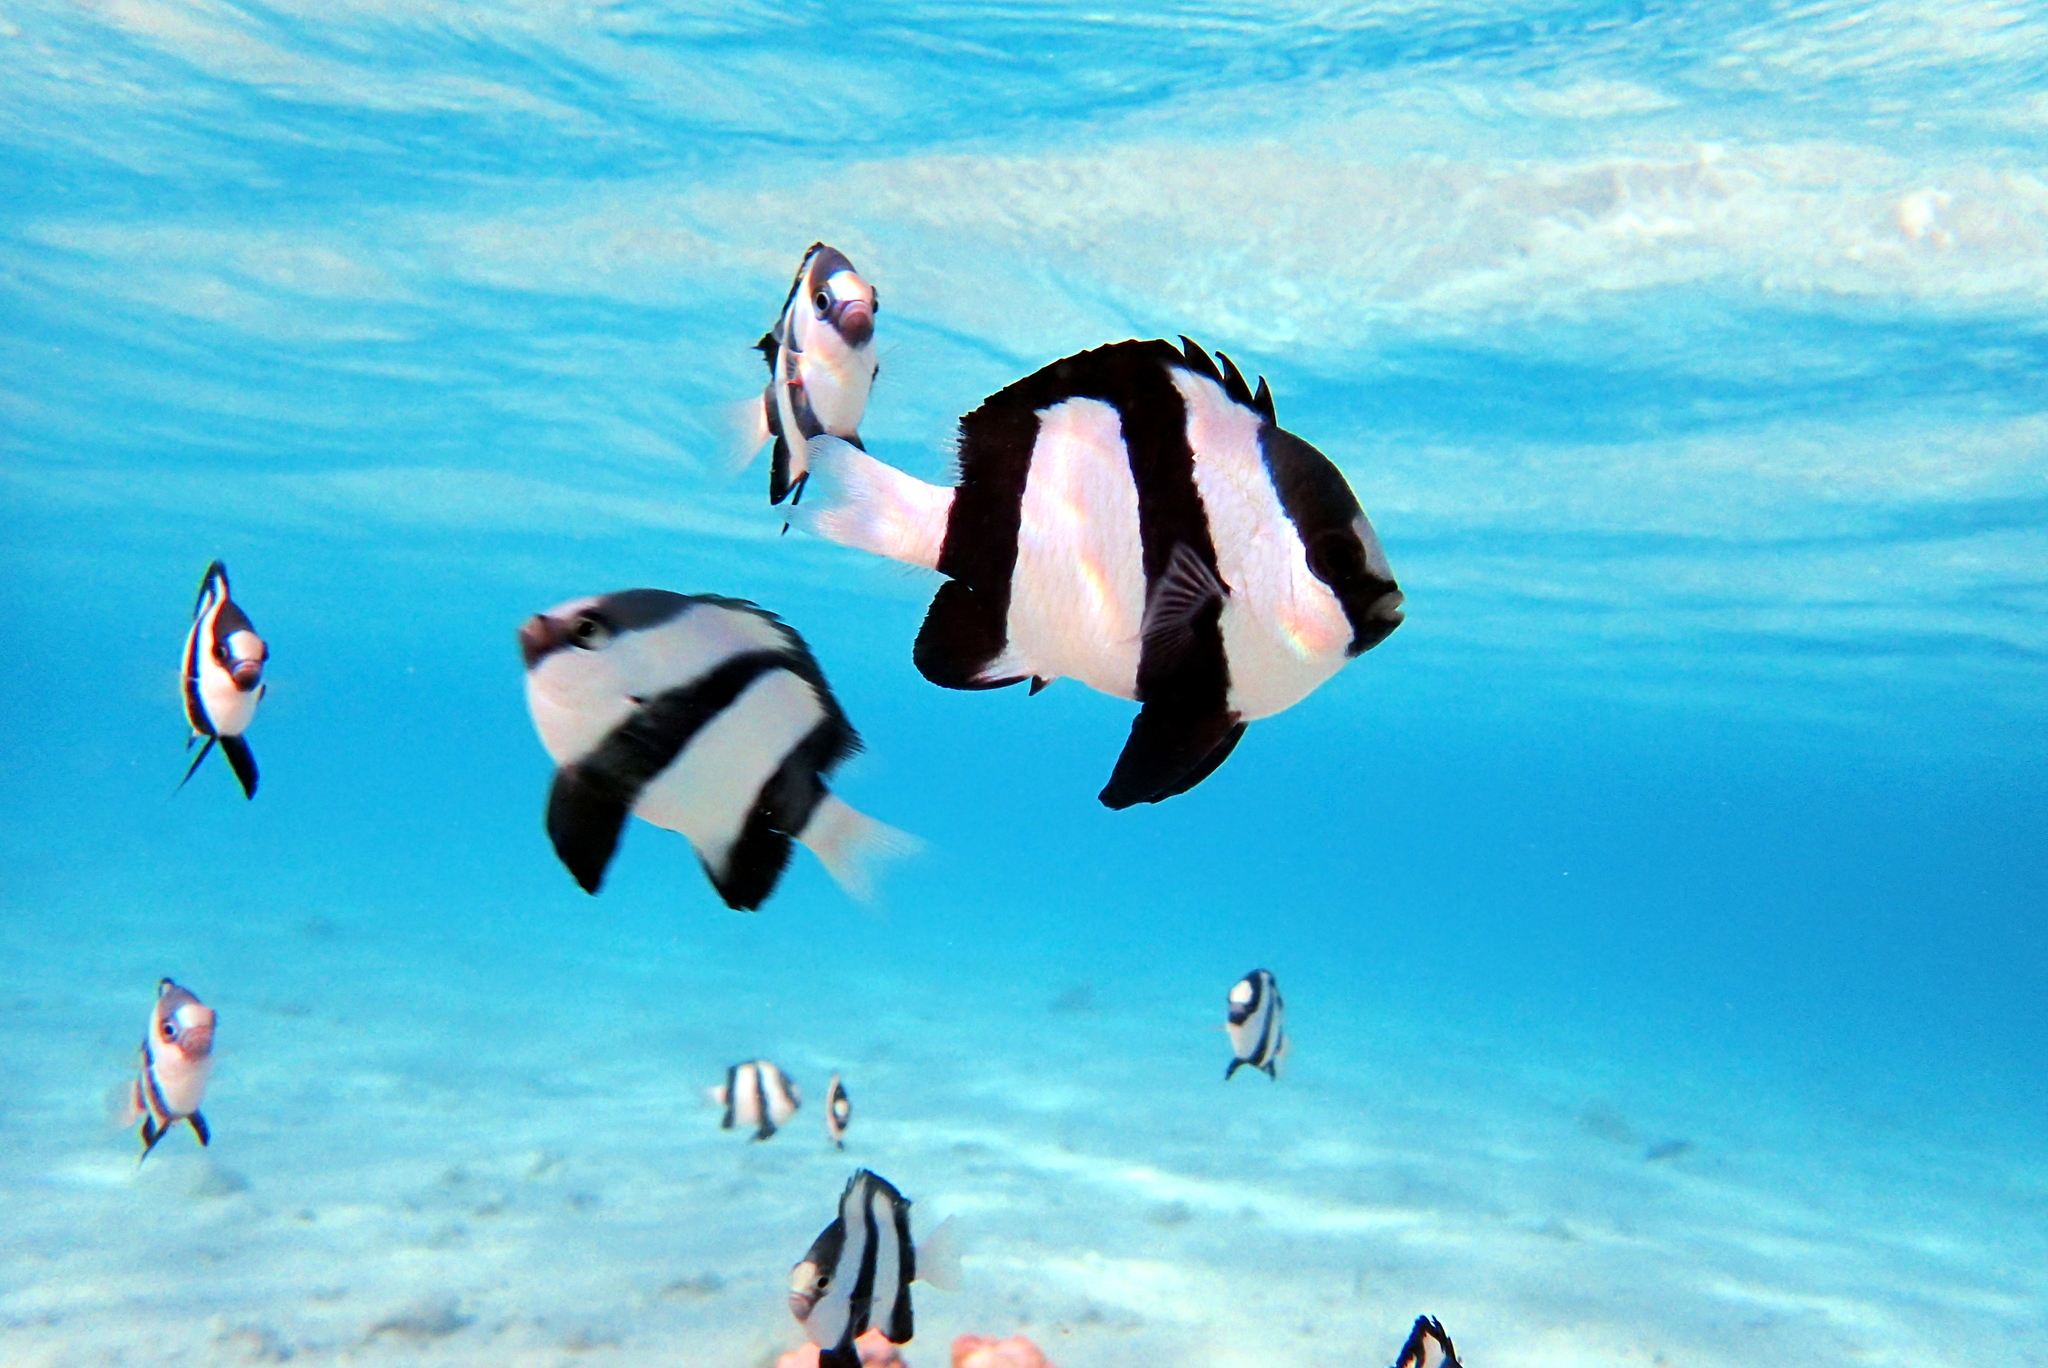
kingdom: Animalia
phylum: Chordata
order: Perciformes
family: Pomacentridae
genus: Dascyllus
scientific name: Dascyllus aruanus
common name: Humbug dascyllus
